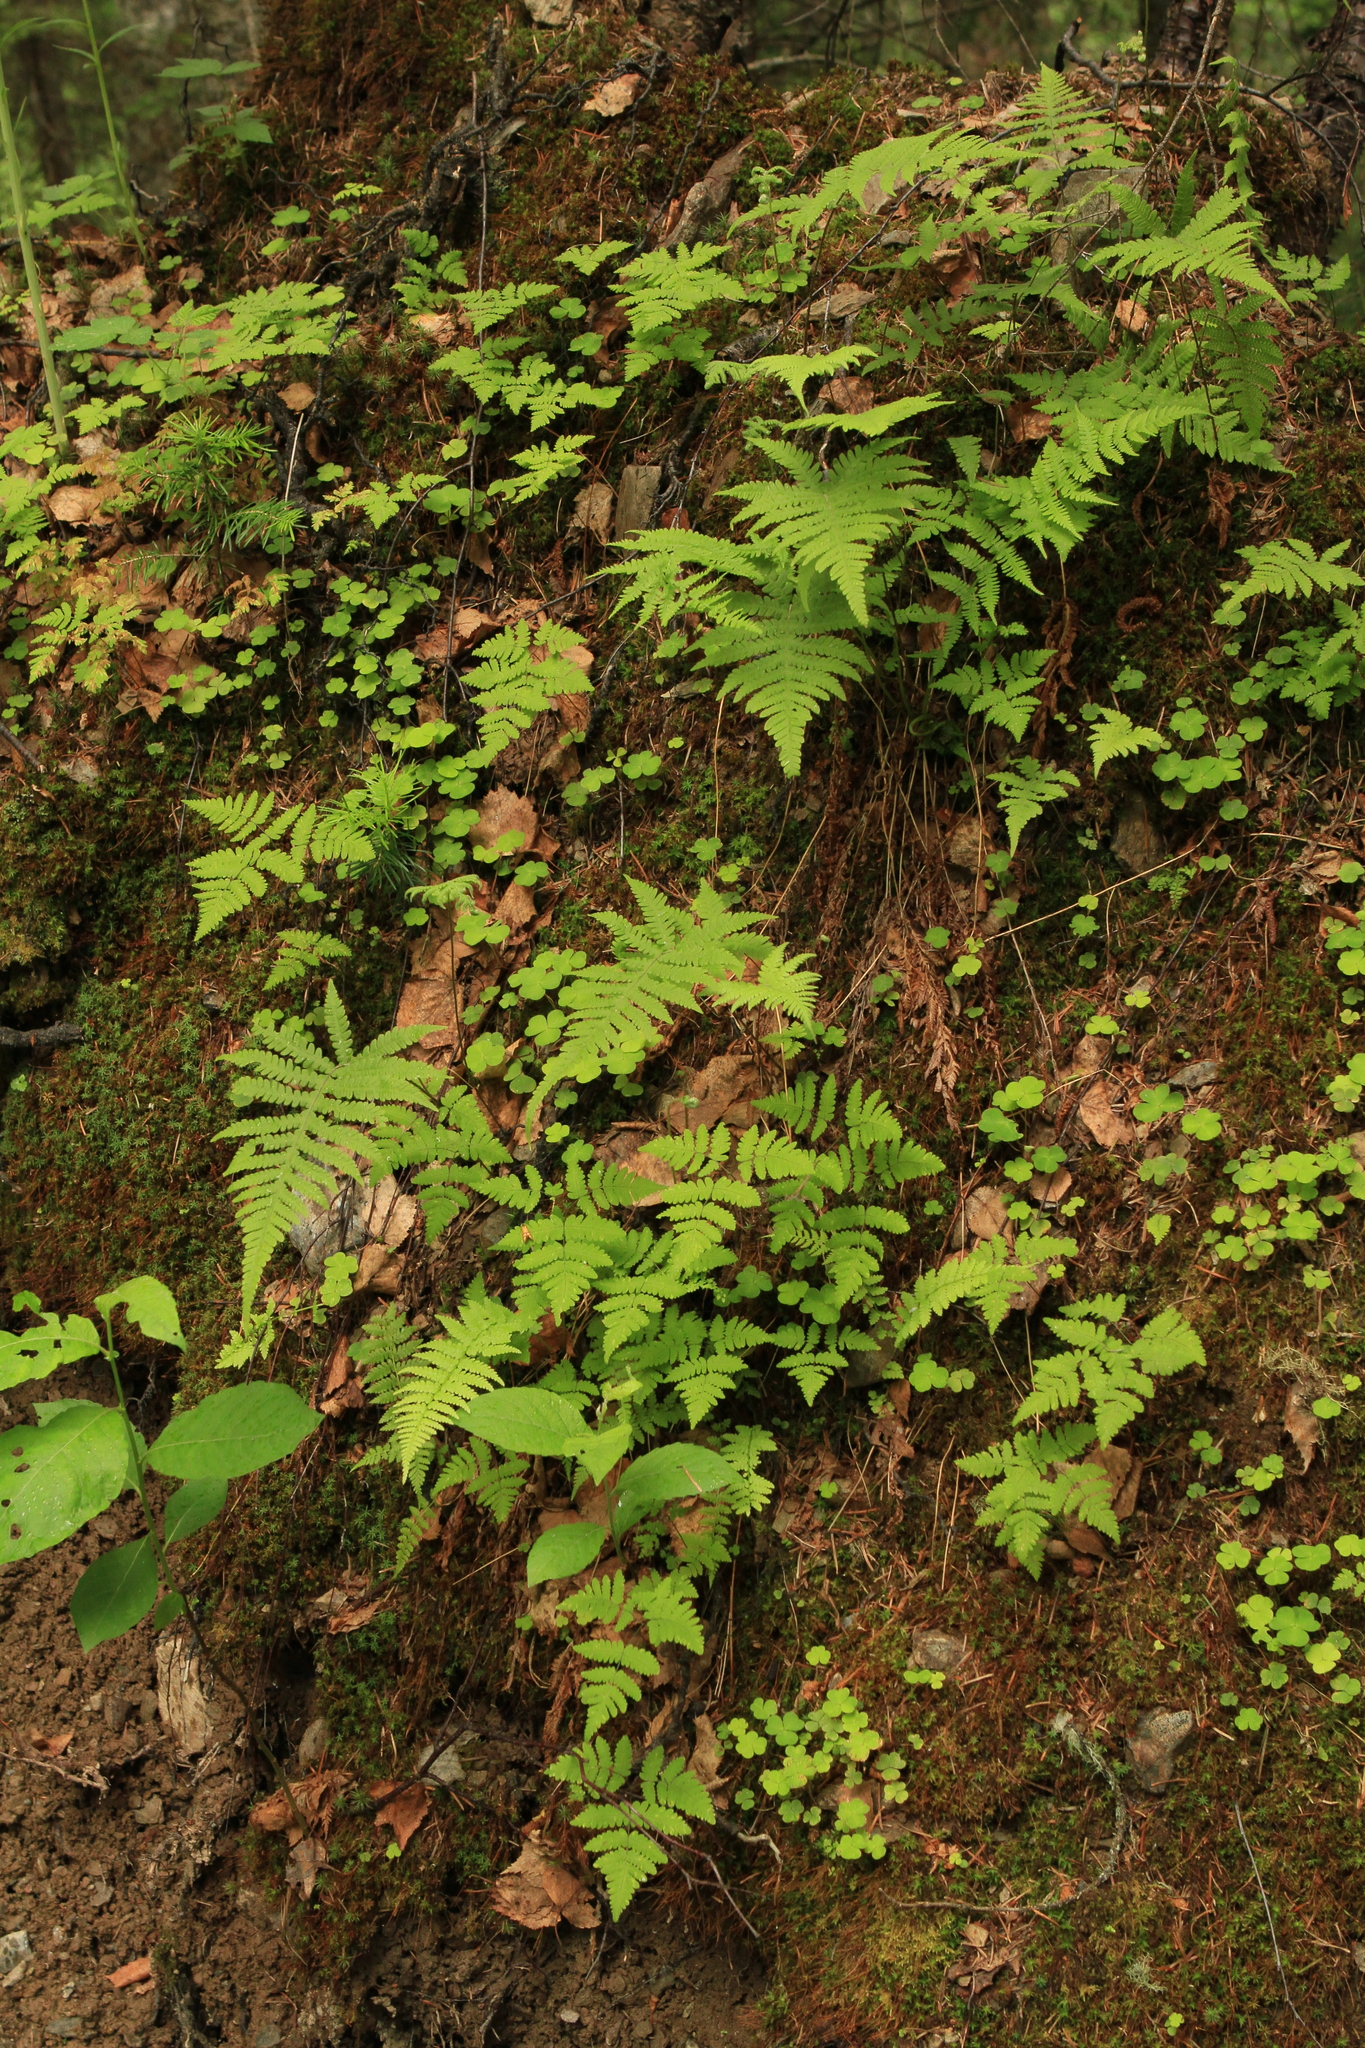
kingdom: Plantae
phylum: Tracheophyta
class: Polypodiopsida
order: Polypodiales
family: Thelypteridaceae
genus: Phegopteris
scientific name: Phegopteris connectilis
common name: Beech fern
